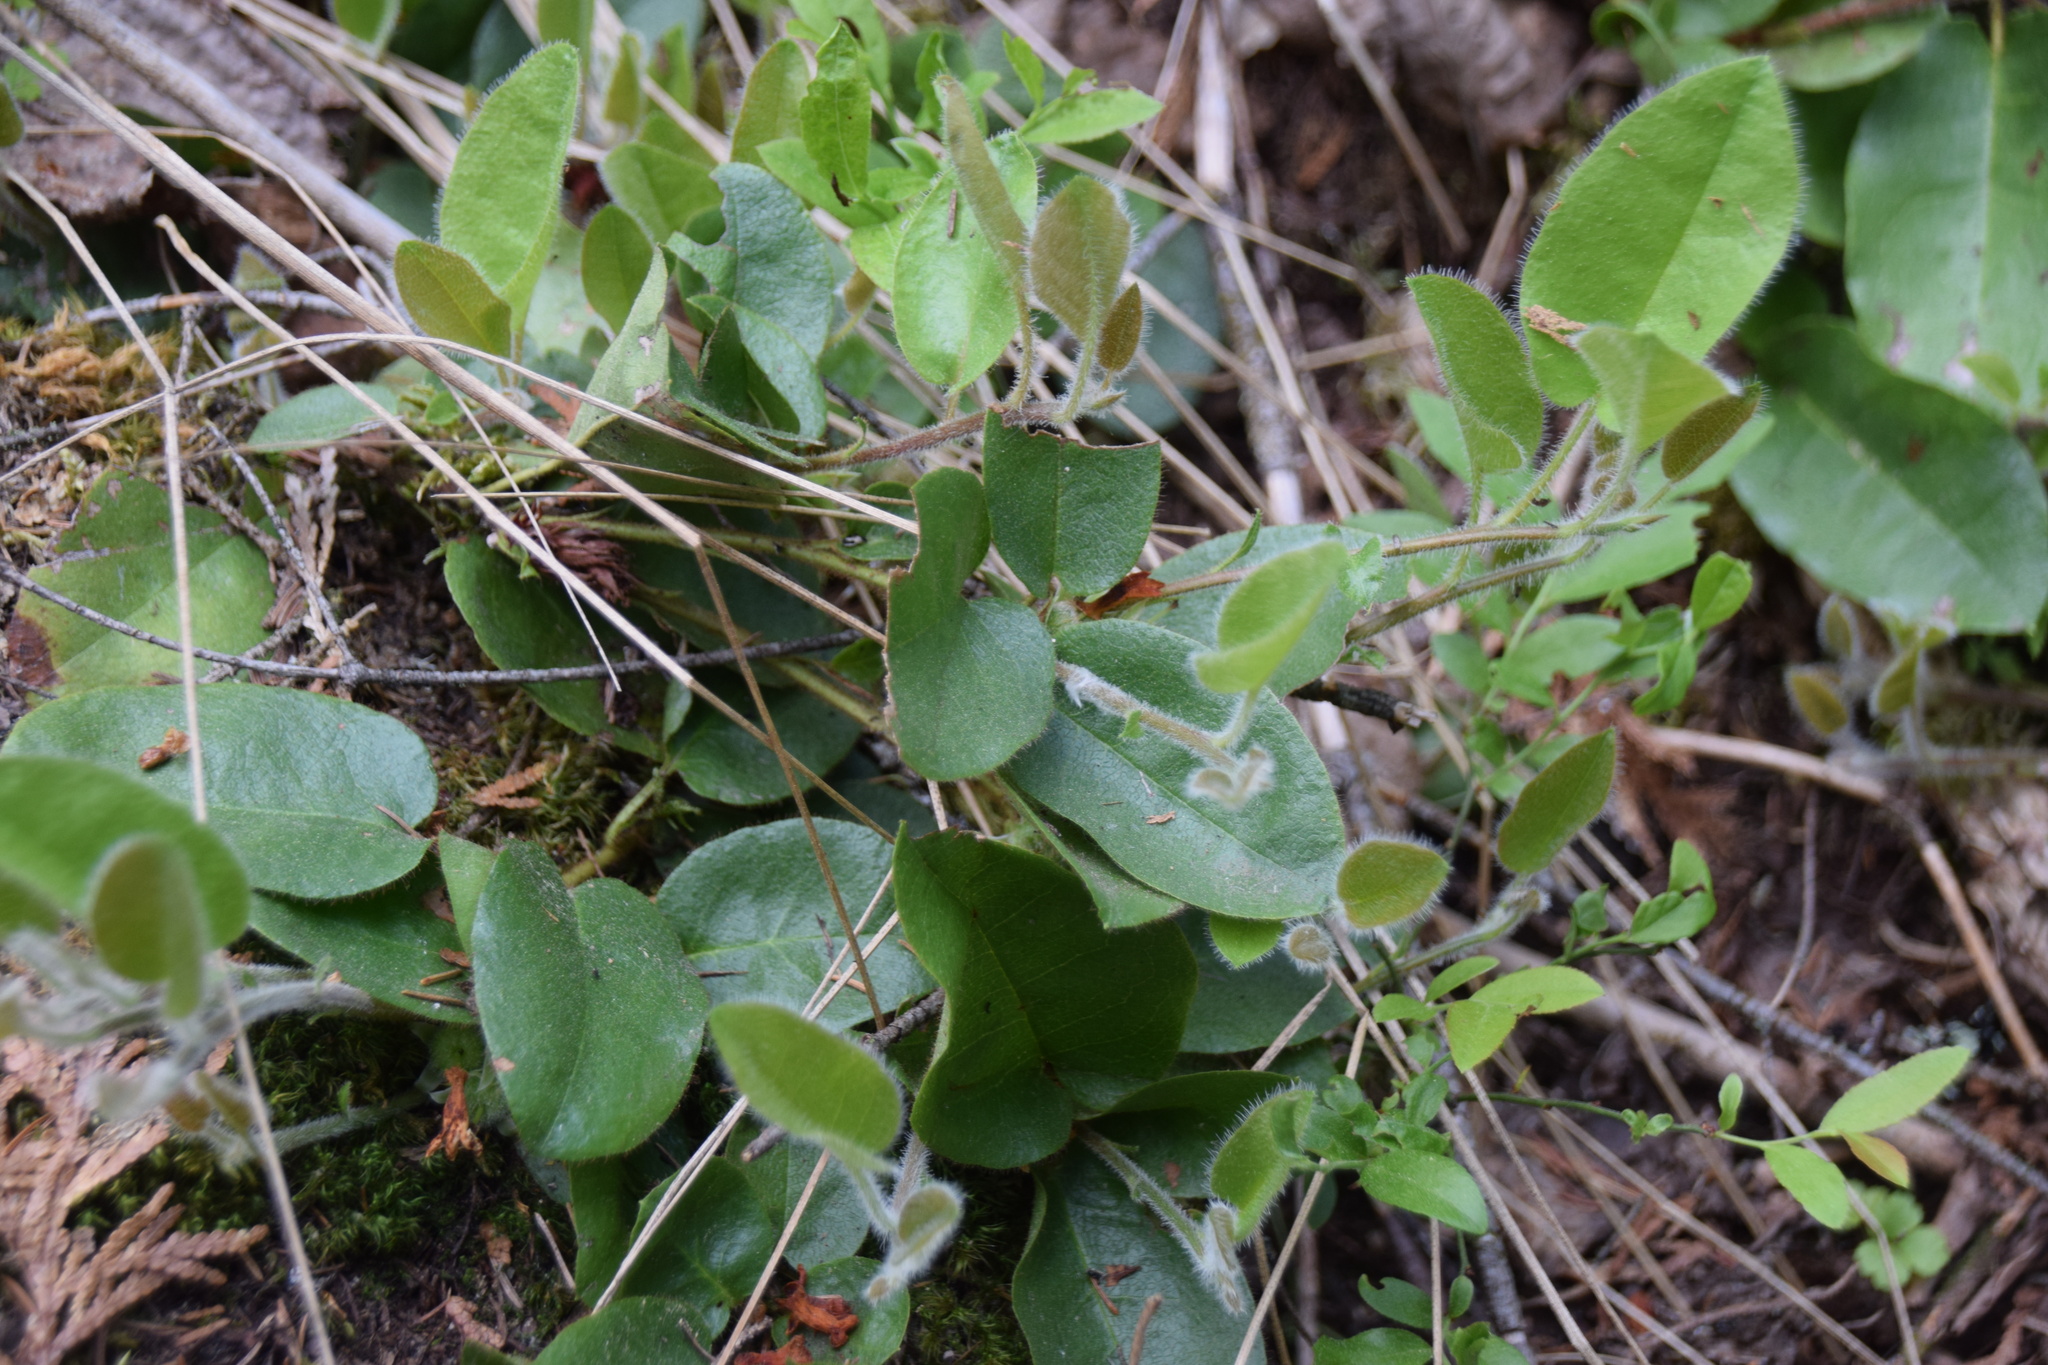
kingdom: Plantae
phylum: Tracheophyta
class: Magnoliopsida
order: Ericales
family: Ericaceae
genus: Epigaea
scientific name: Epigaea repens
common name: Gravelroot
